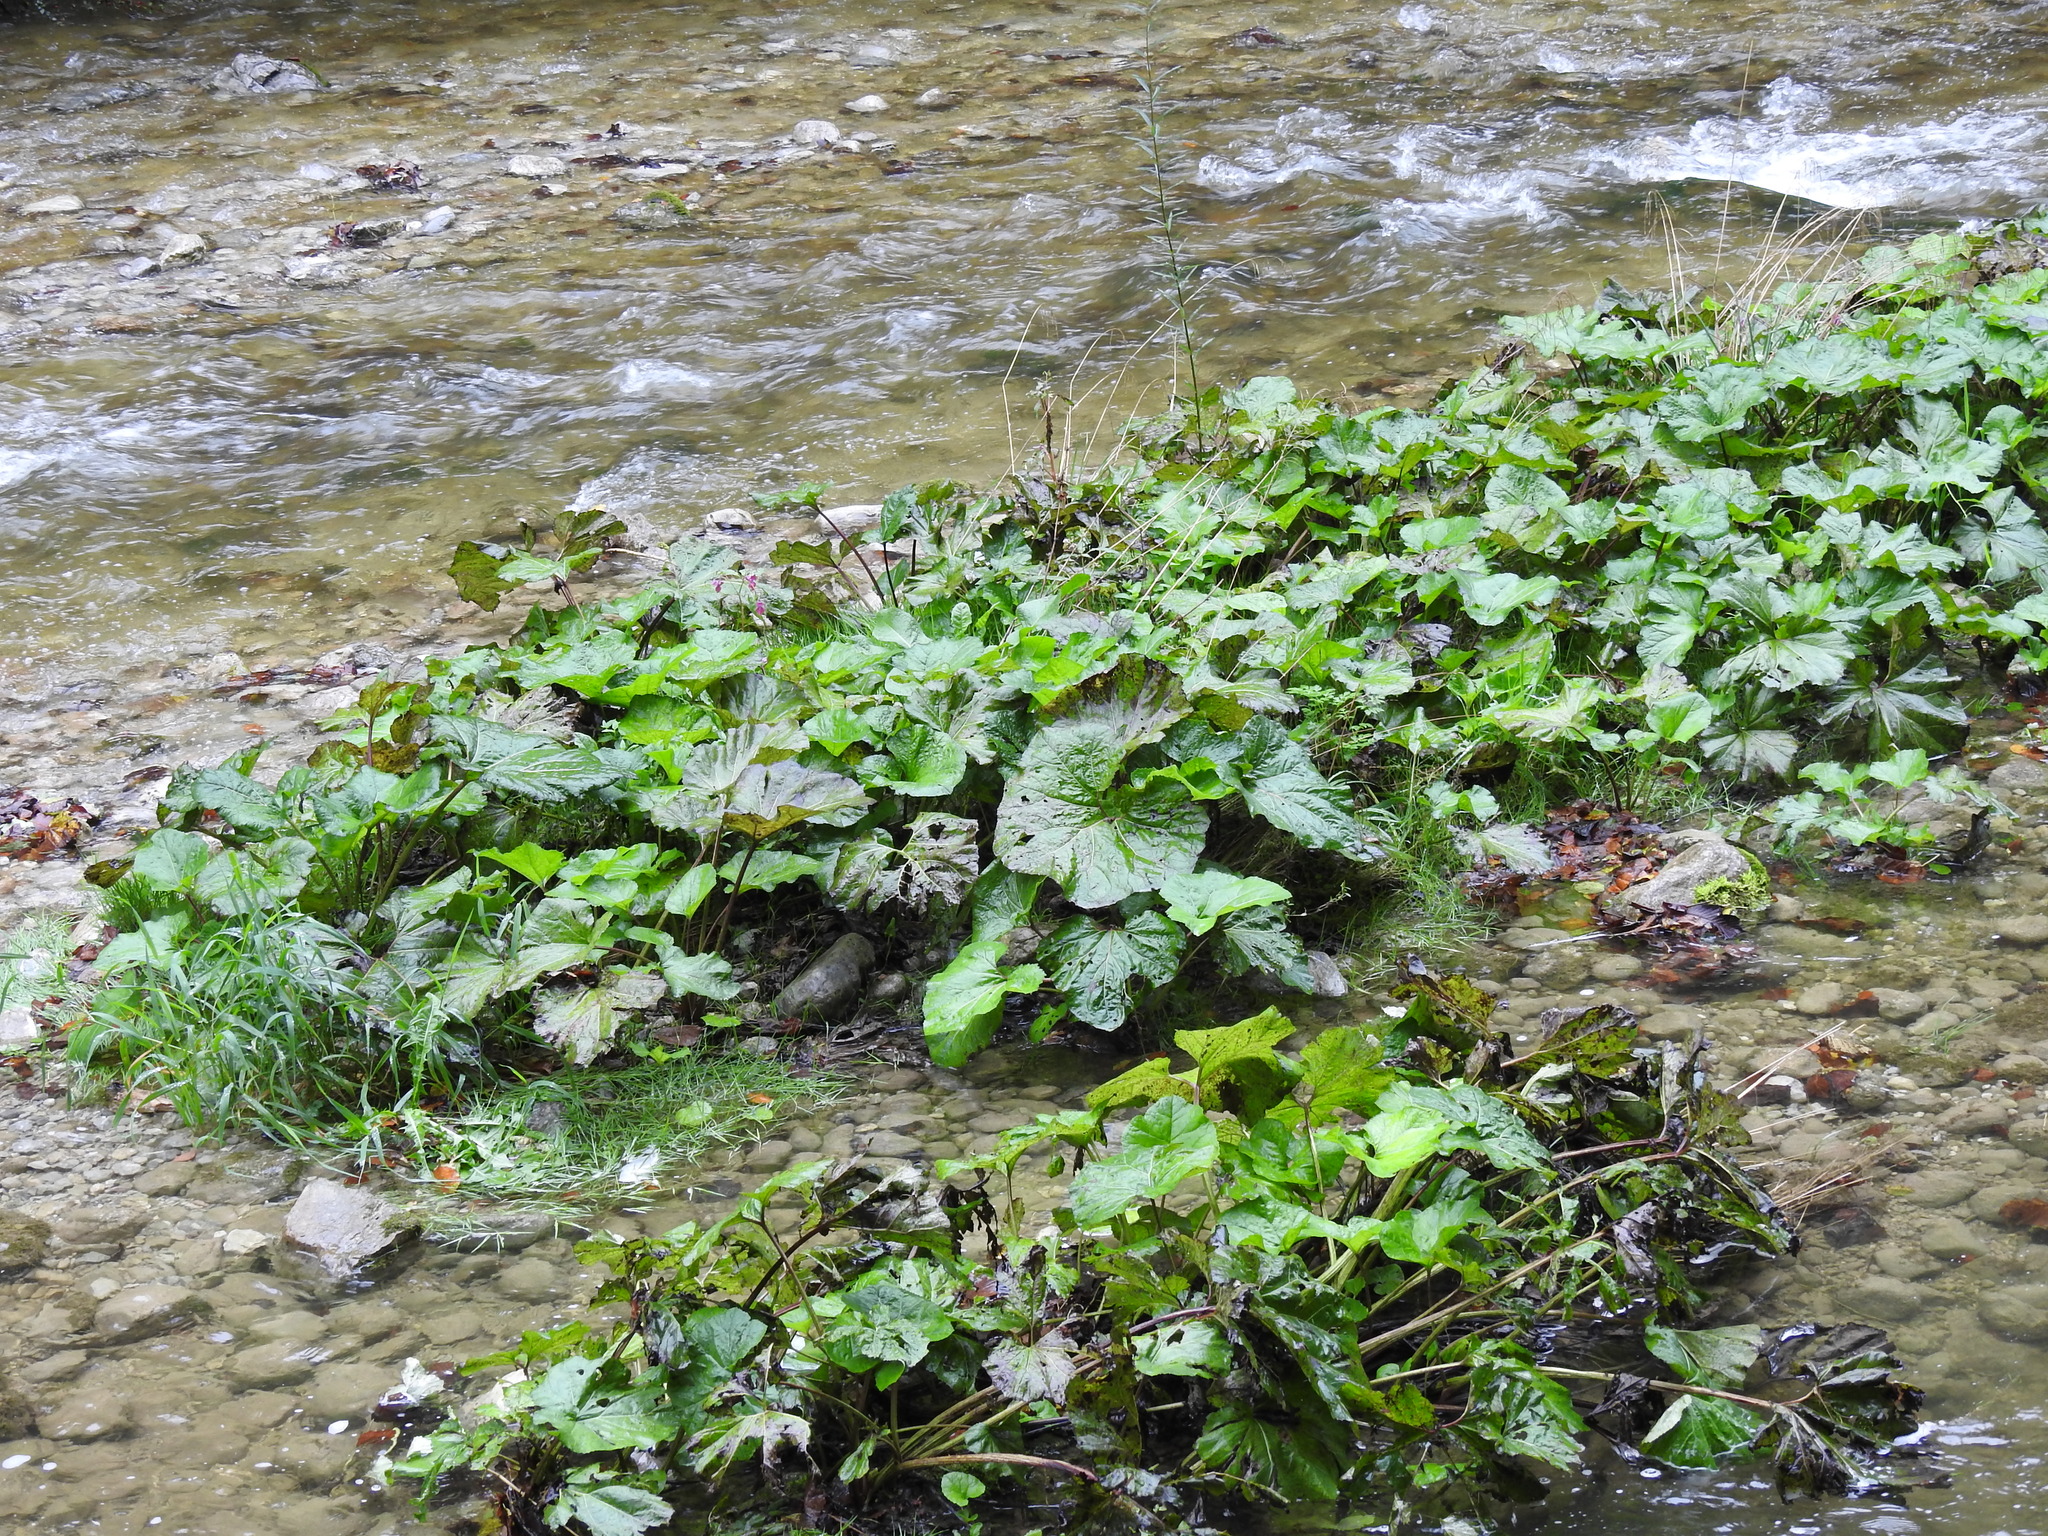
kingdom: Plantae
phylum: Tracheophyta
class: Magnoliopsida
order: Asterales
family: Asteraceae
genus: Petasites
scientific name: Petasites hybridus
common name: Butterbur
